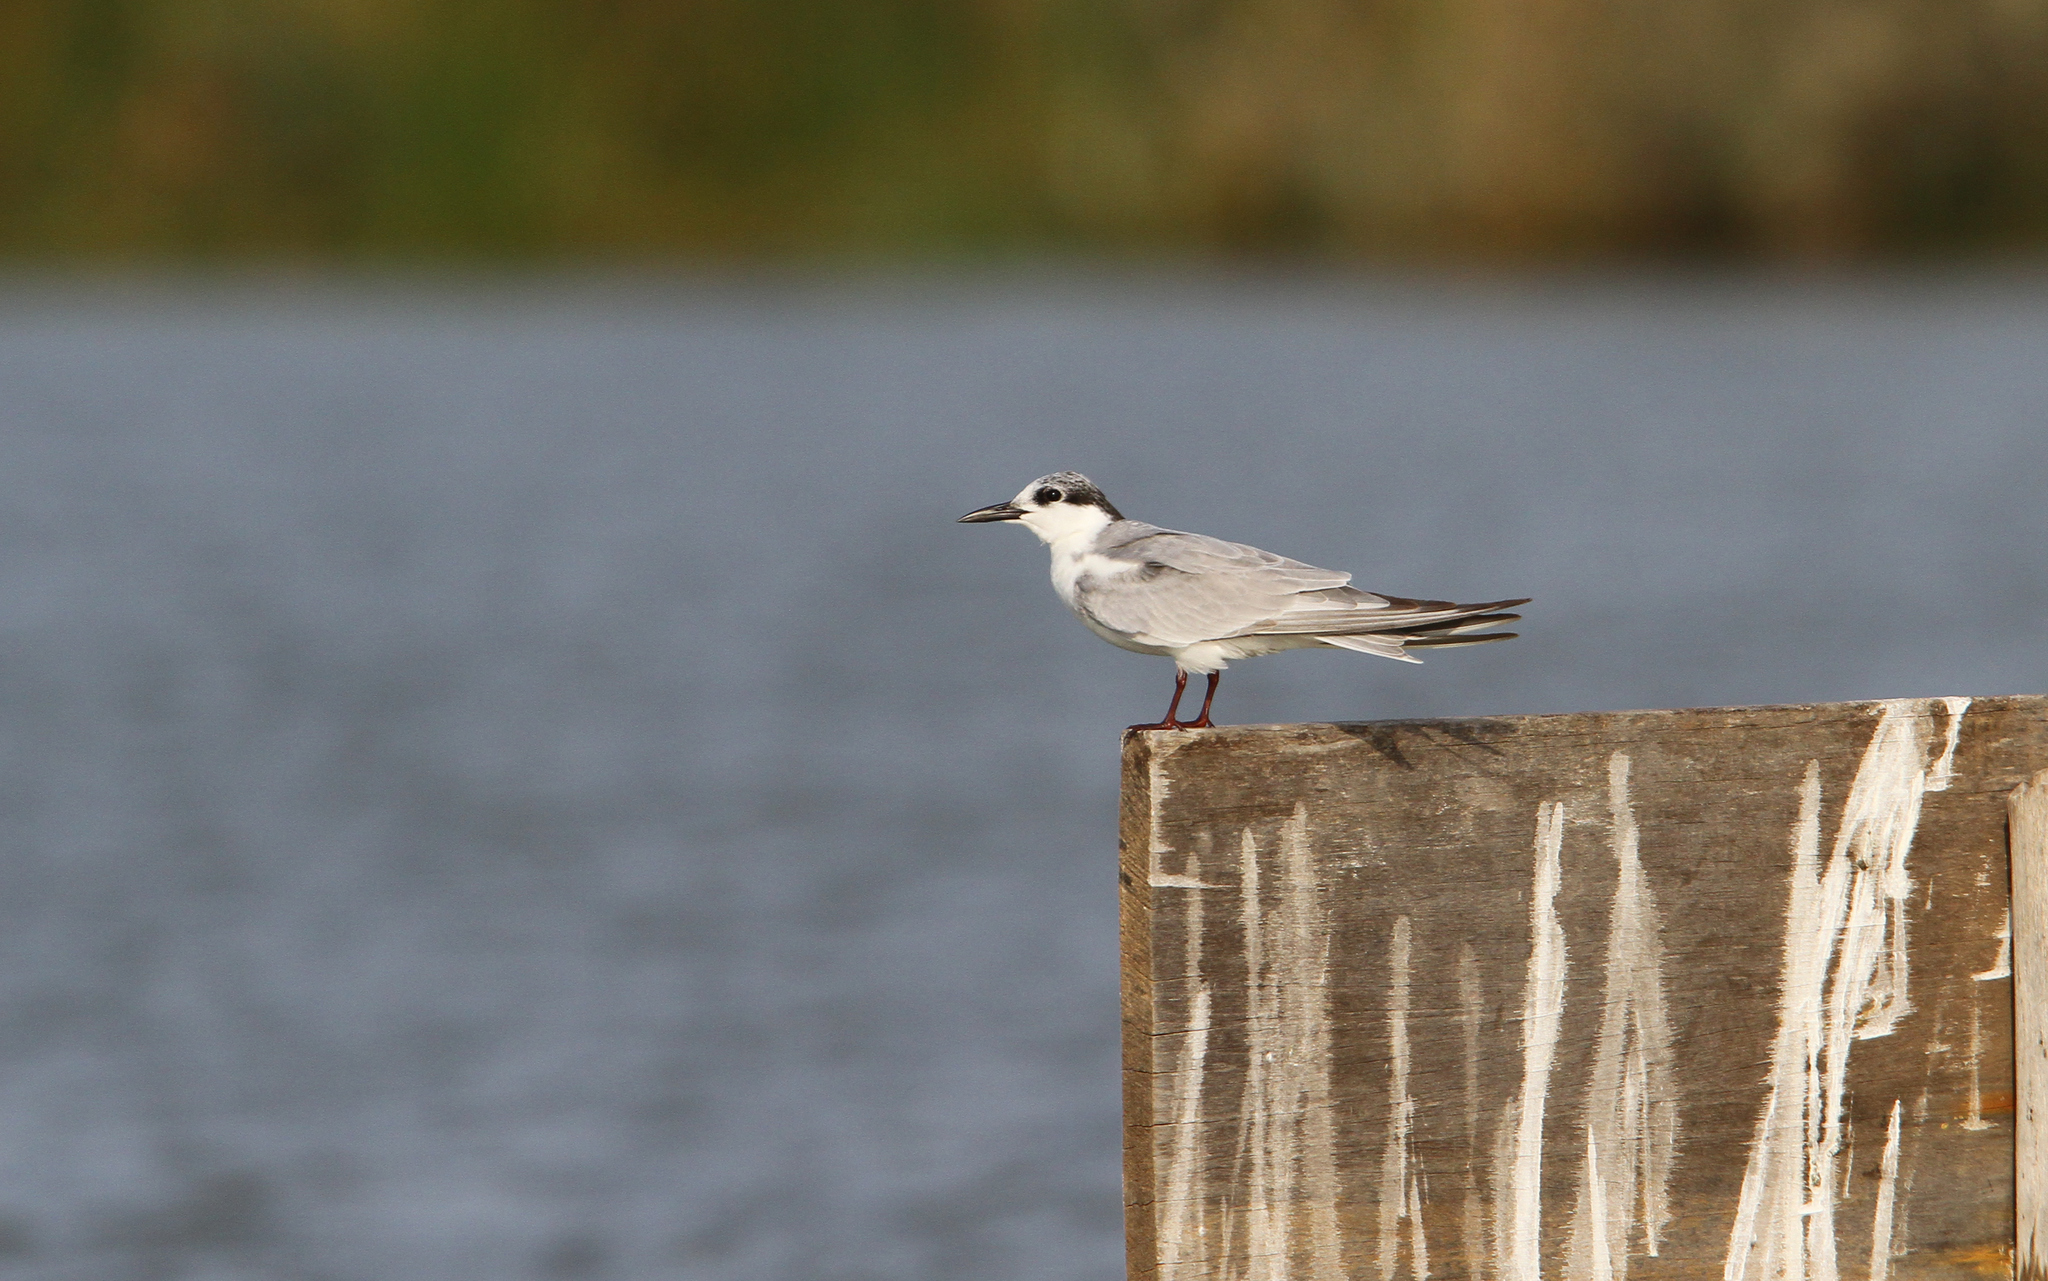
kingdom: Animalia
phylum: Chordata
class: Aves
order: Charadriiformes
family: Laridae
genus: Chlidonias
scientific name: Chlidonias hybrida
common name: Whiskered tern
